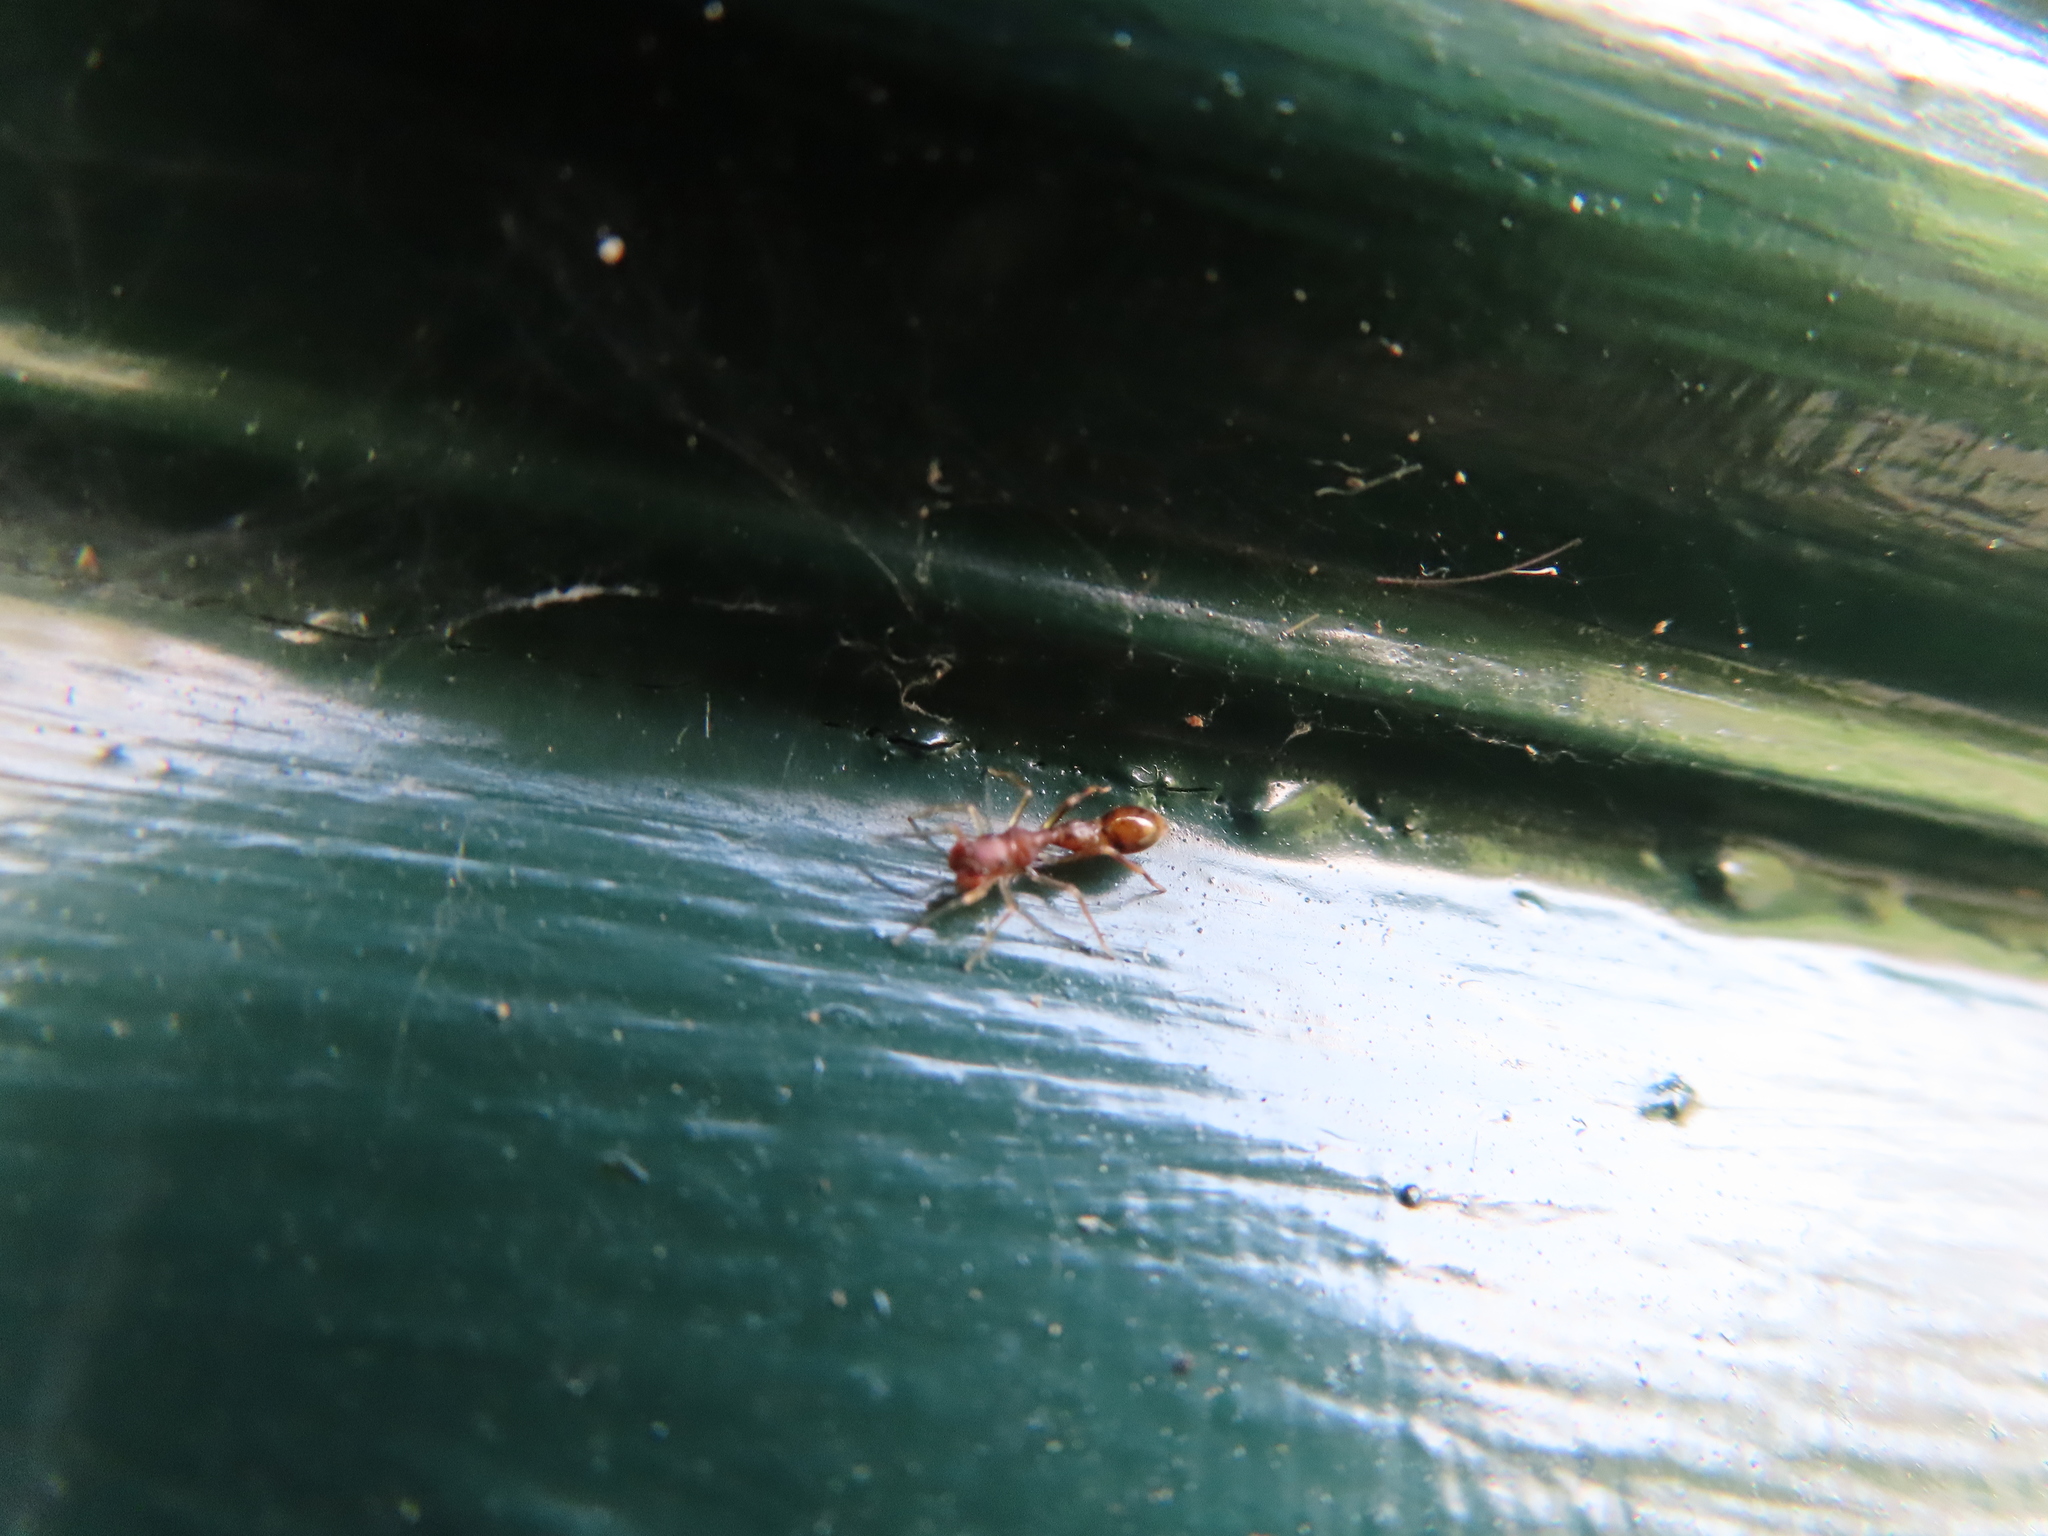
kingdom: Animalia
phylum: Arthropoda
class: Arachnida
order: Araneae
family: Salticidae
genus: Synemosyna
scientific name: Synemosyna formica
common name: Slender ant-mimic jumping spider
